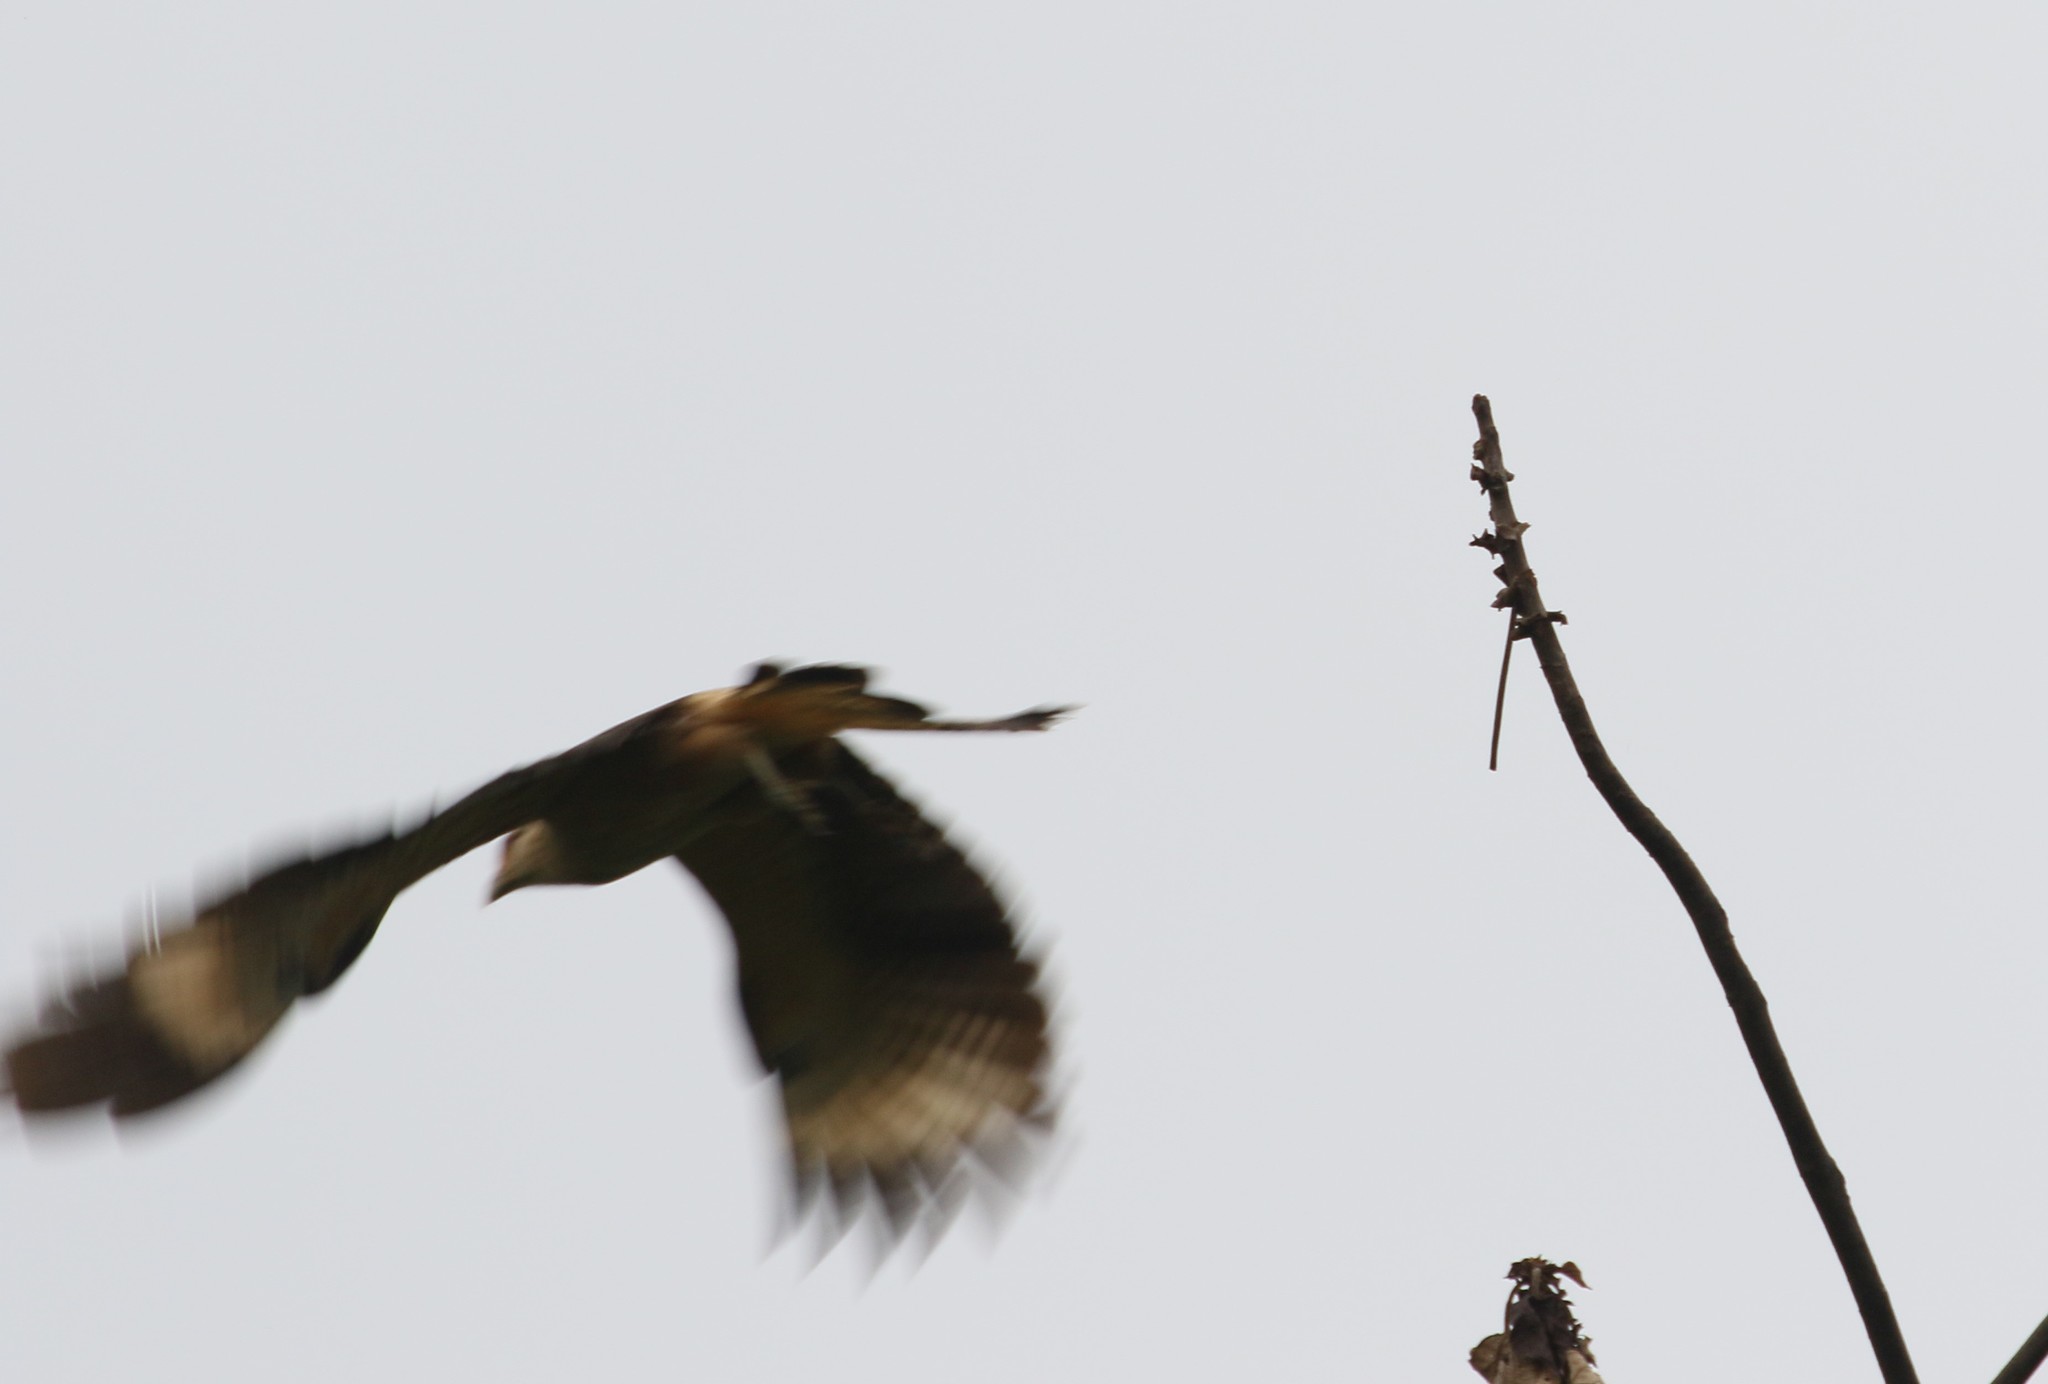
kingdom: Animalia
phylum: Chordata
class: Aves
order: Falconiformes
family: Falconidae
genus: Daptrius
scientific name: Daptrius
